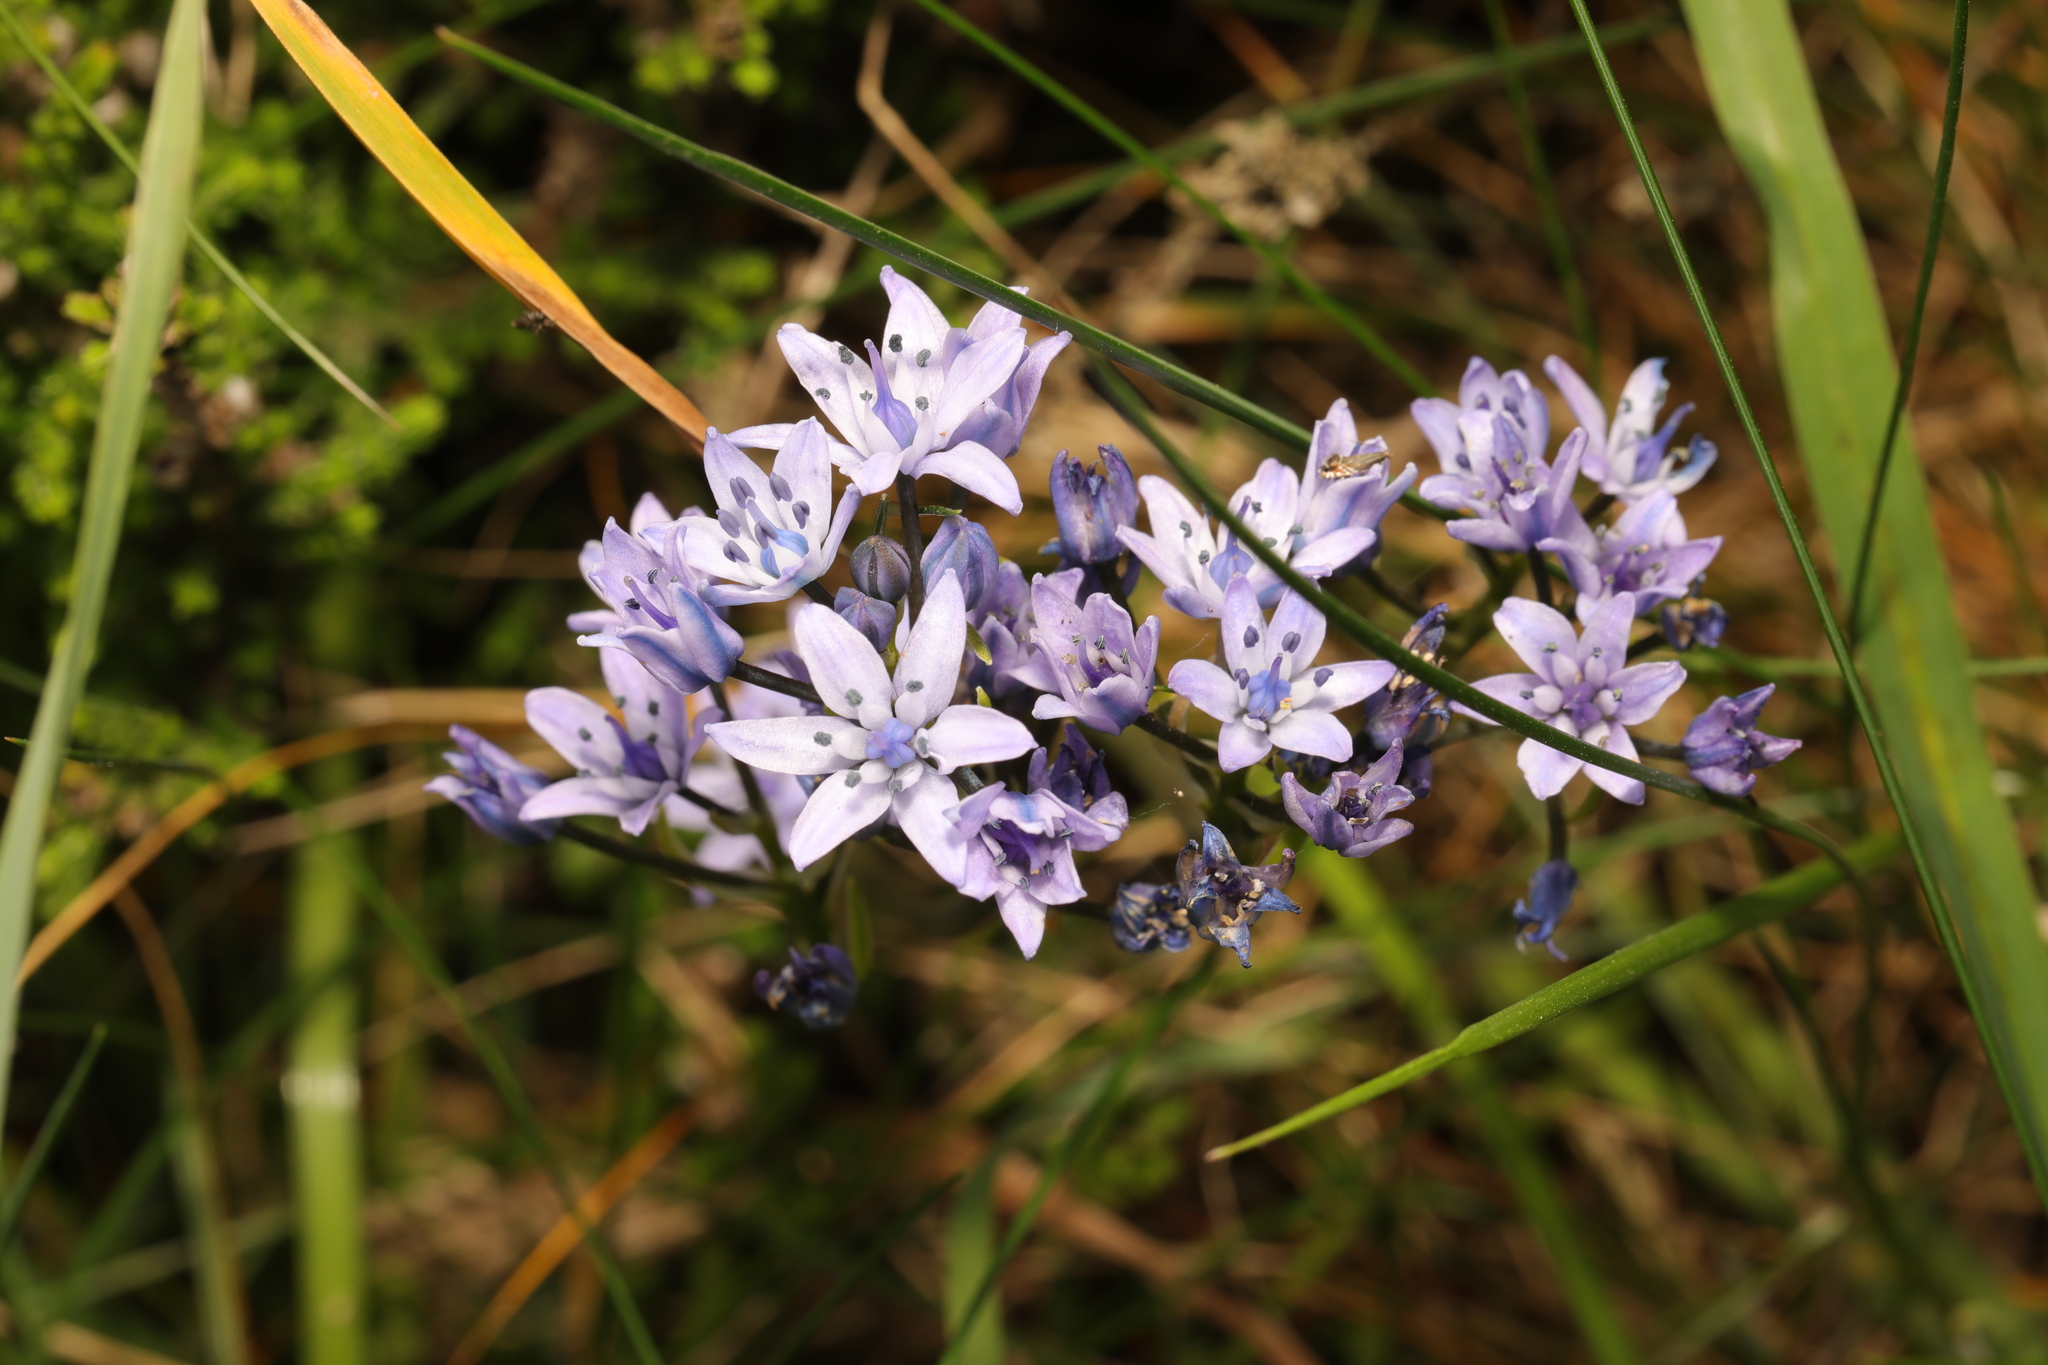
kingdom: Plantae
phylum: Tracheophyta
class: Liliopsida
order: Asparagales
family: Asparagaceae
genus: Scilla
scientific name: Scilla verna
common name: Spring squill
